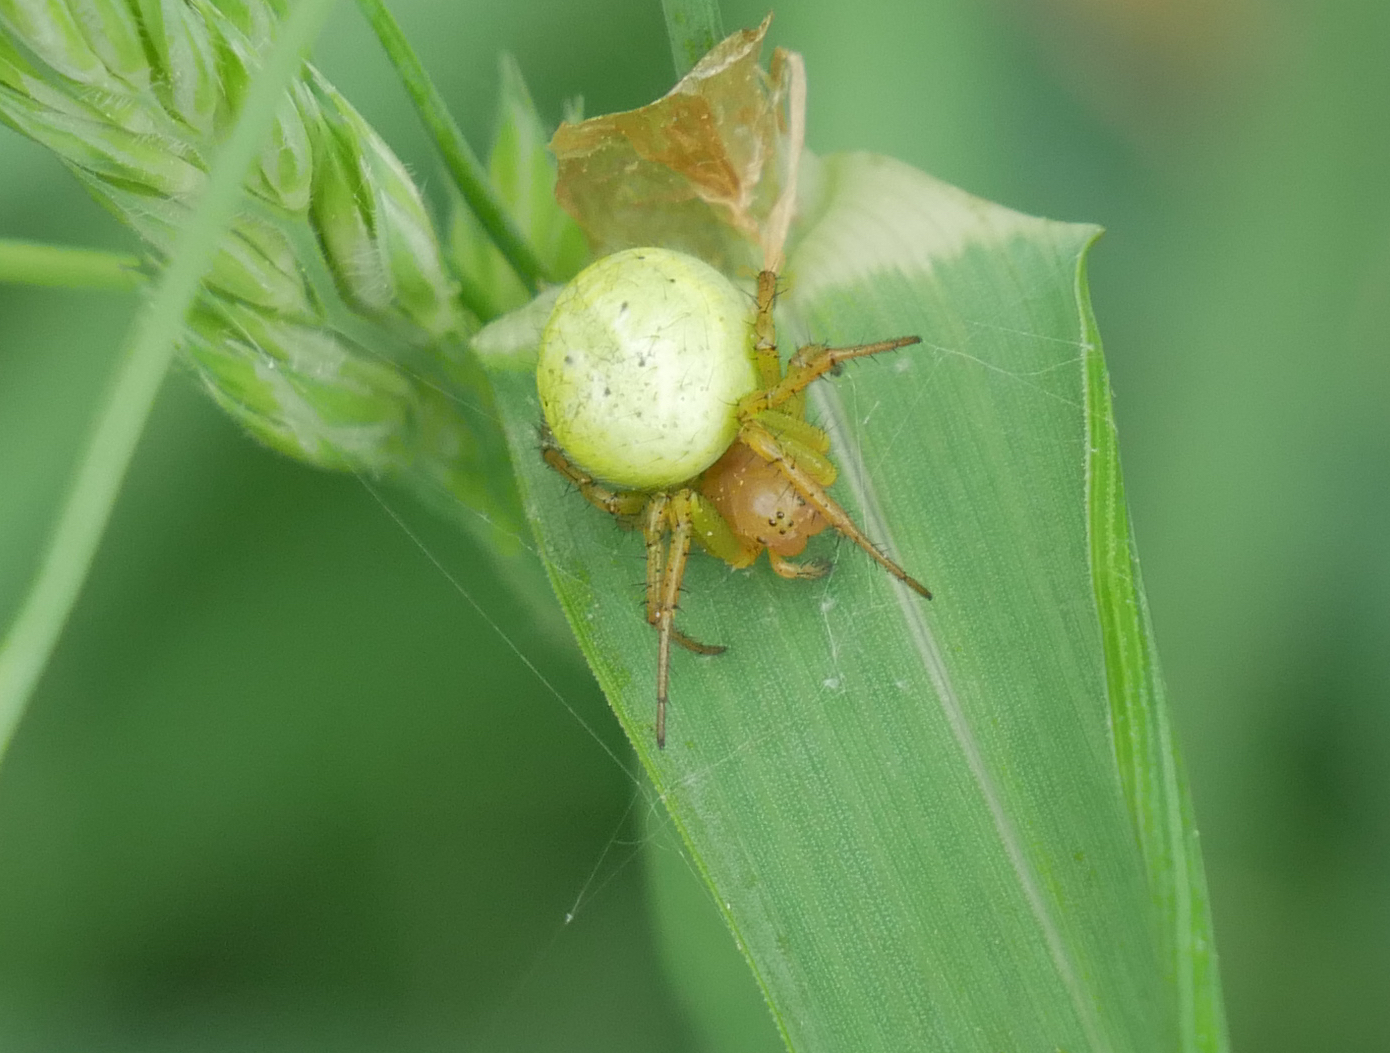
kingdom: Animalia
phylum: Arthropoda
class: Arachnida
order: Araneae
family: Araneidae
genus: Araniella
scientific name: Araniella
